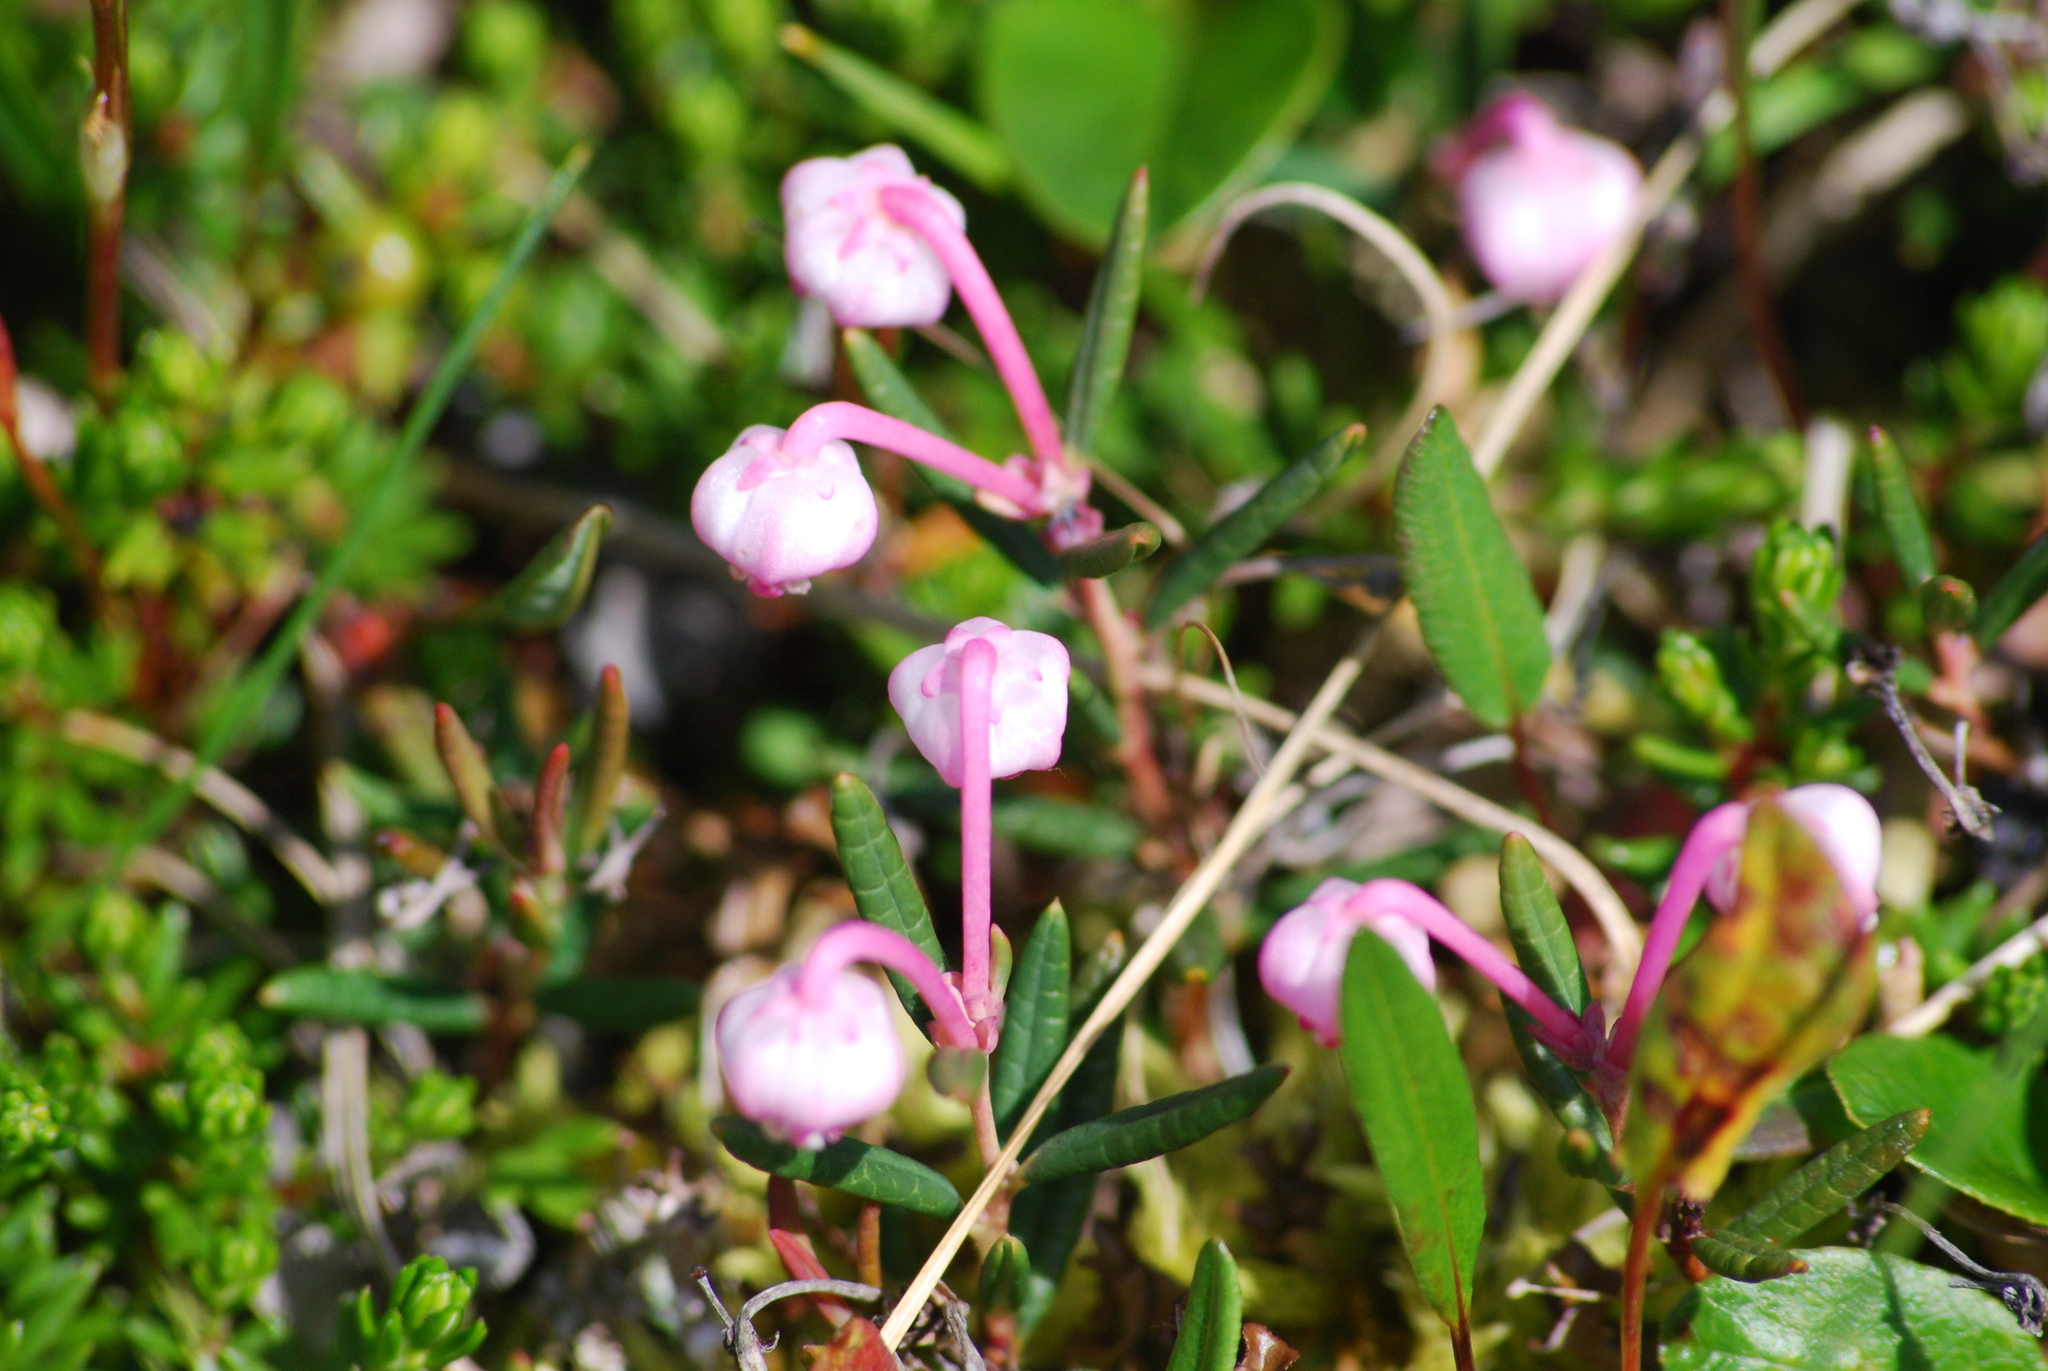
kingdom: Plantae
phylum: Tracheophyta
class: Magnoliopsida
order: Ericales
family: Ericaceae
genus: Andromeda
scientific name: Andromeda polifolia
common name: Bog-rosemary
